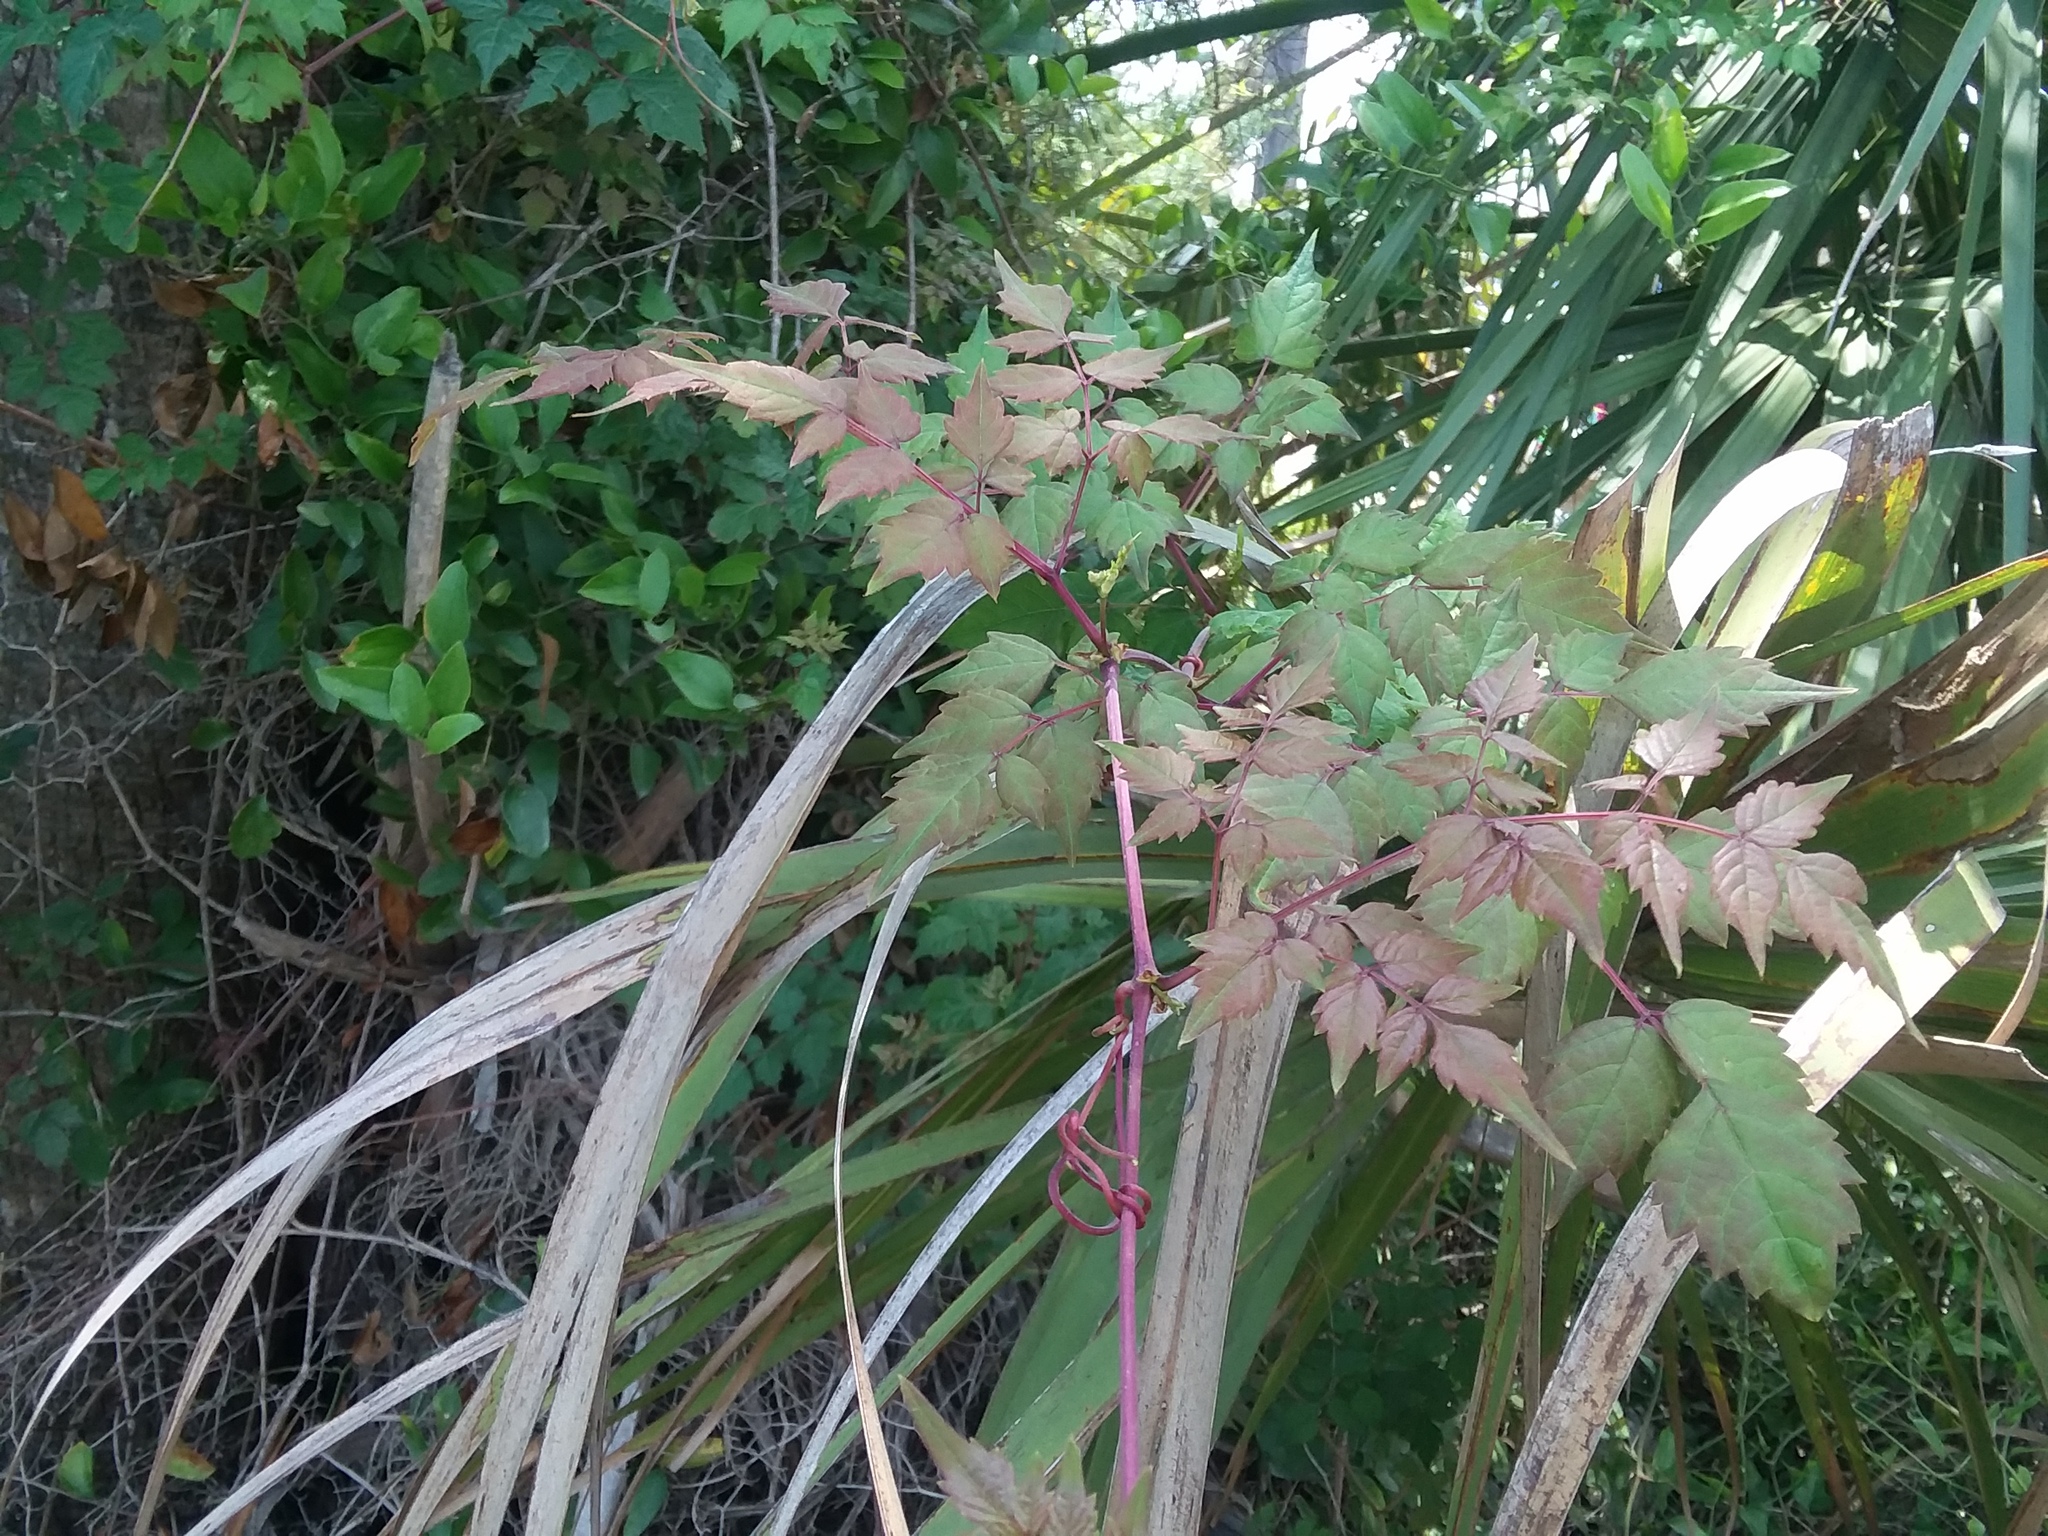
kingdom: Plantae
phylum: Tracheophyta
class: Magnoliopsida
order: Vitales
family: Vitaceae
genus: Nekemias
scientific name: Nekemias arborea
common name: Peppervine
